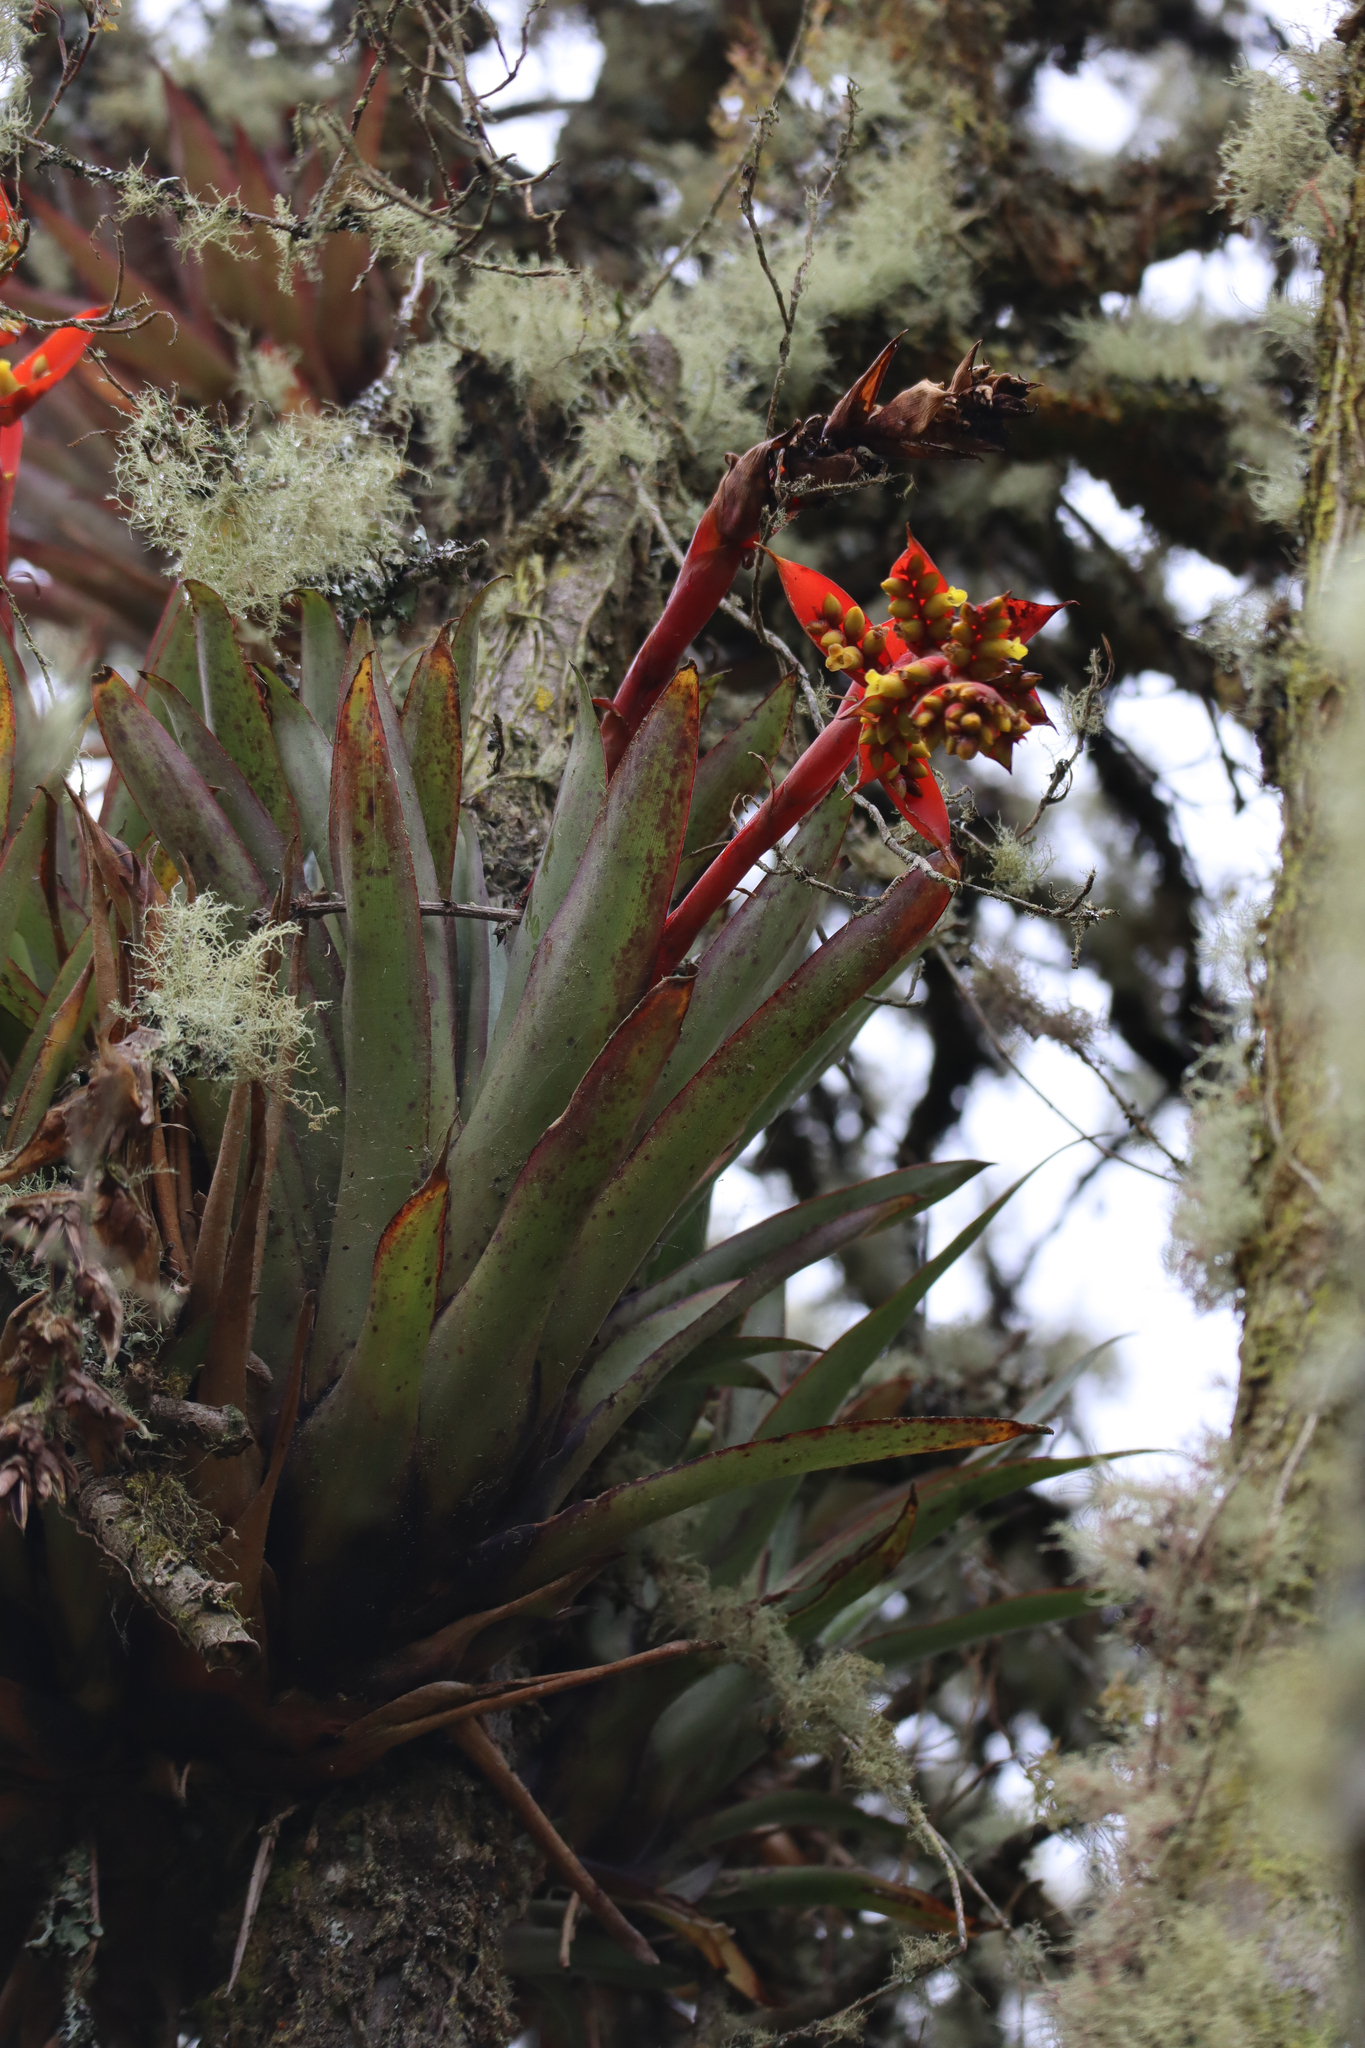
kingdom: Plantae
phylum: Tracheophyta
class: Liliopsida
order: Poales
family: Bromeliaceae
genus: Racinaea
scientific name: Racinaea tetrantha
